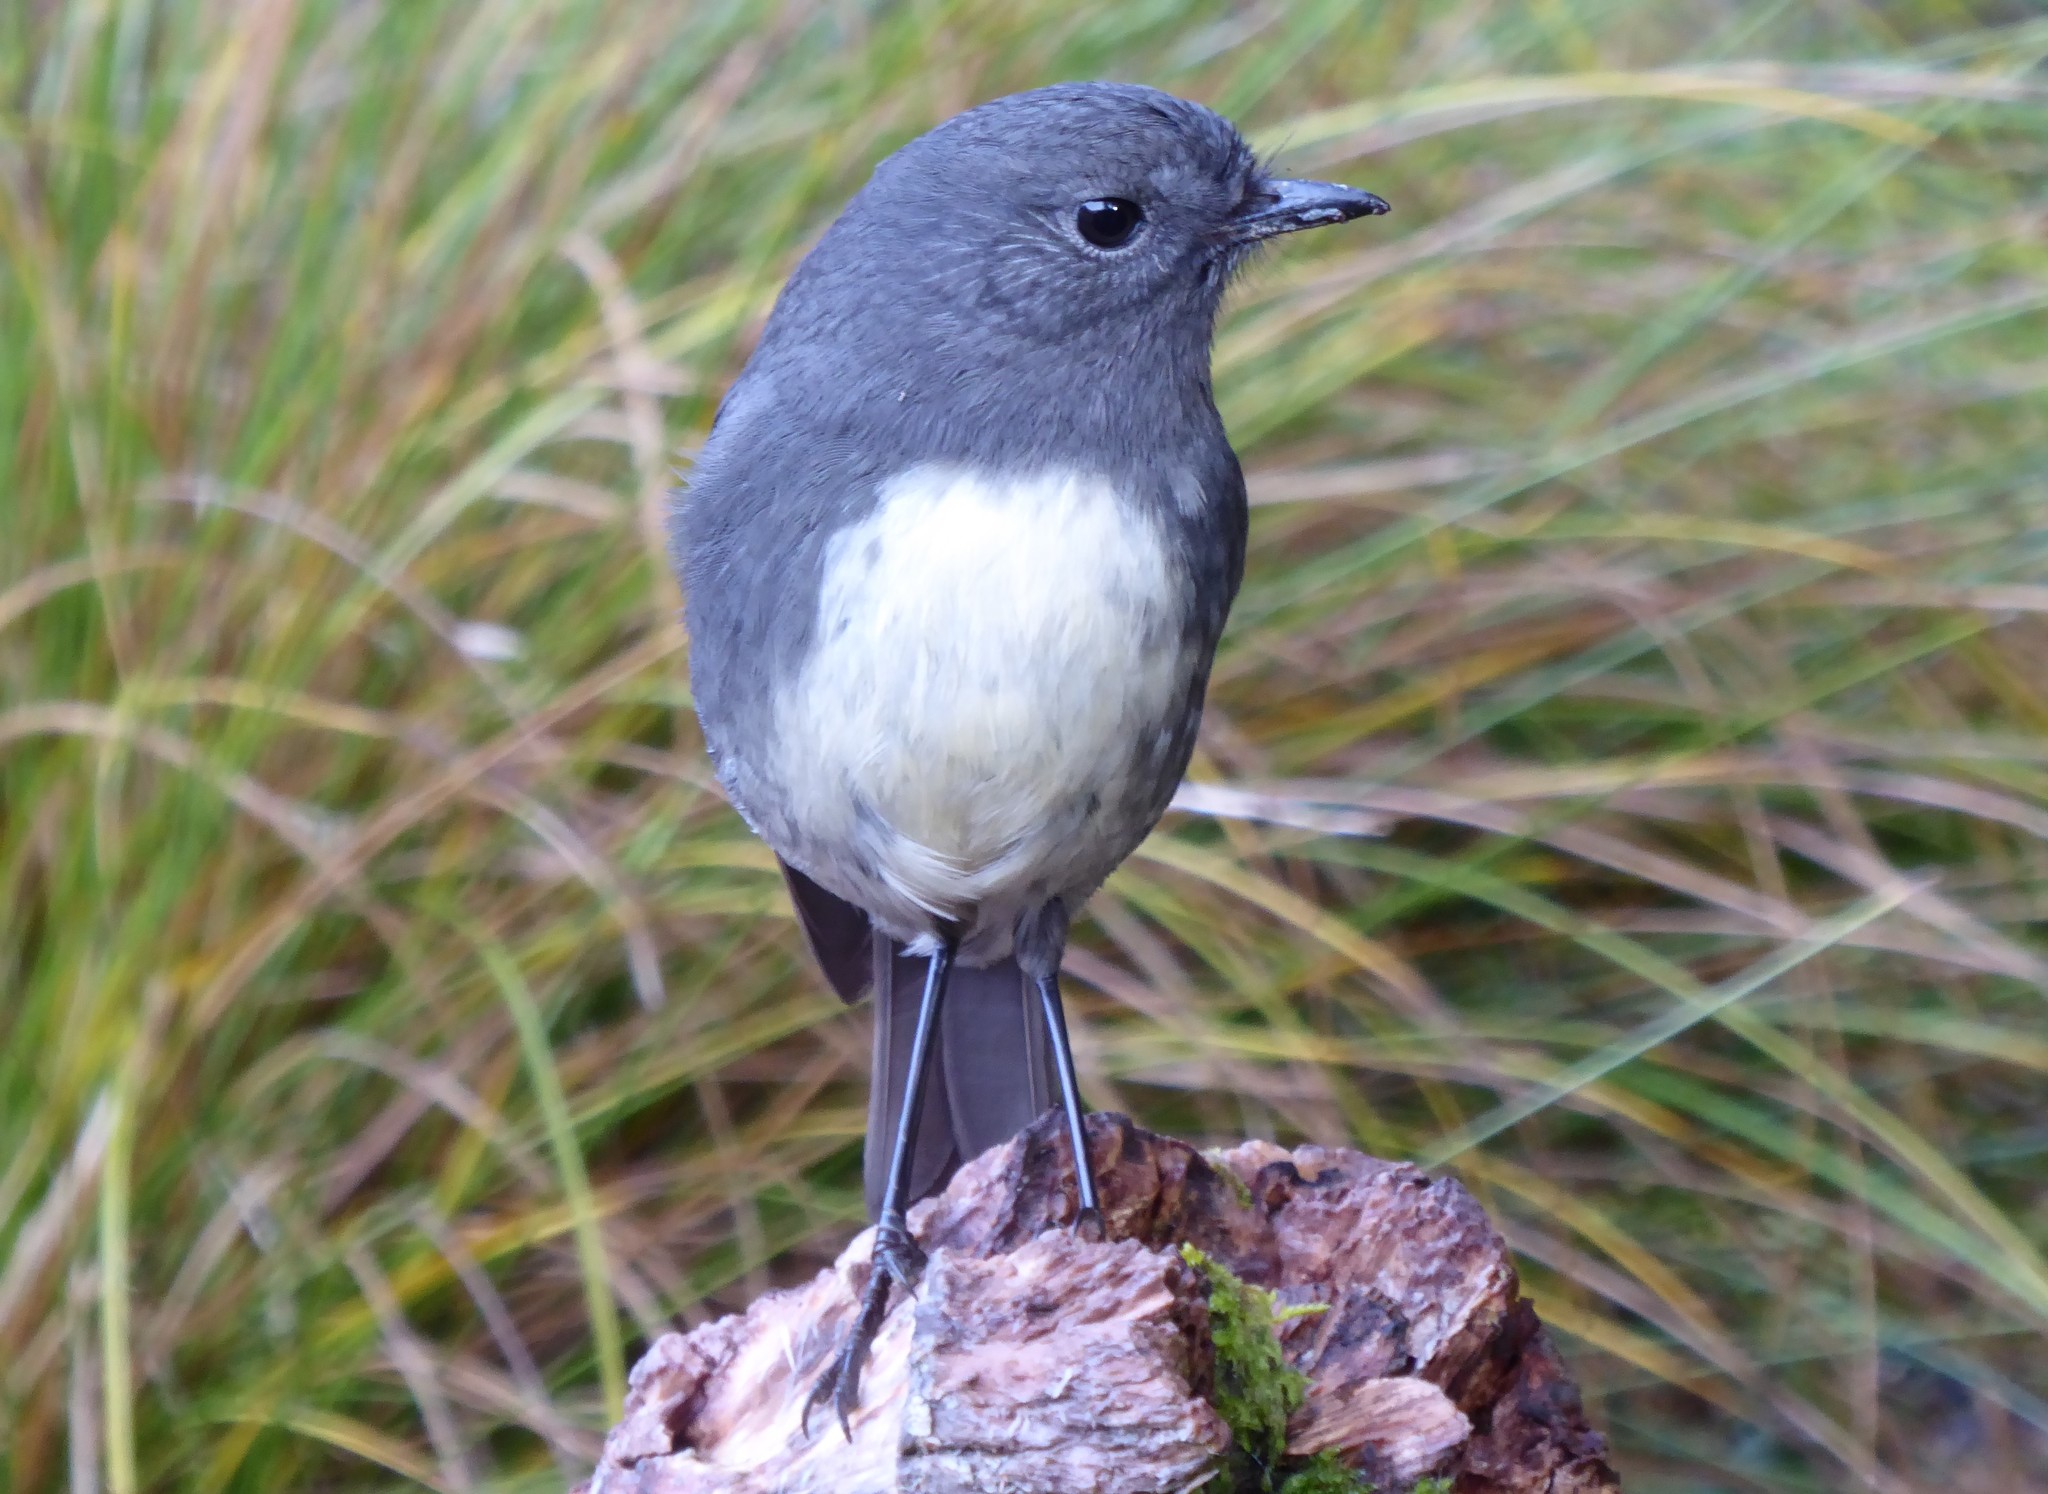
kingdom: Animalia
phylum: Chordata
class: Aves
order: Passeriformes
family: Petroicidae
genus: Petroica
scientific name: Petroica australis
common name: New zealand robin
